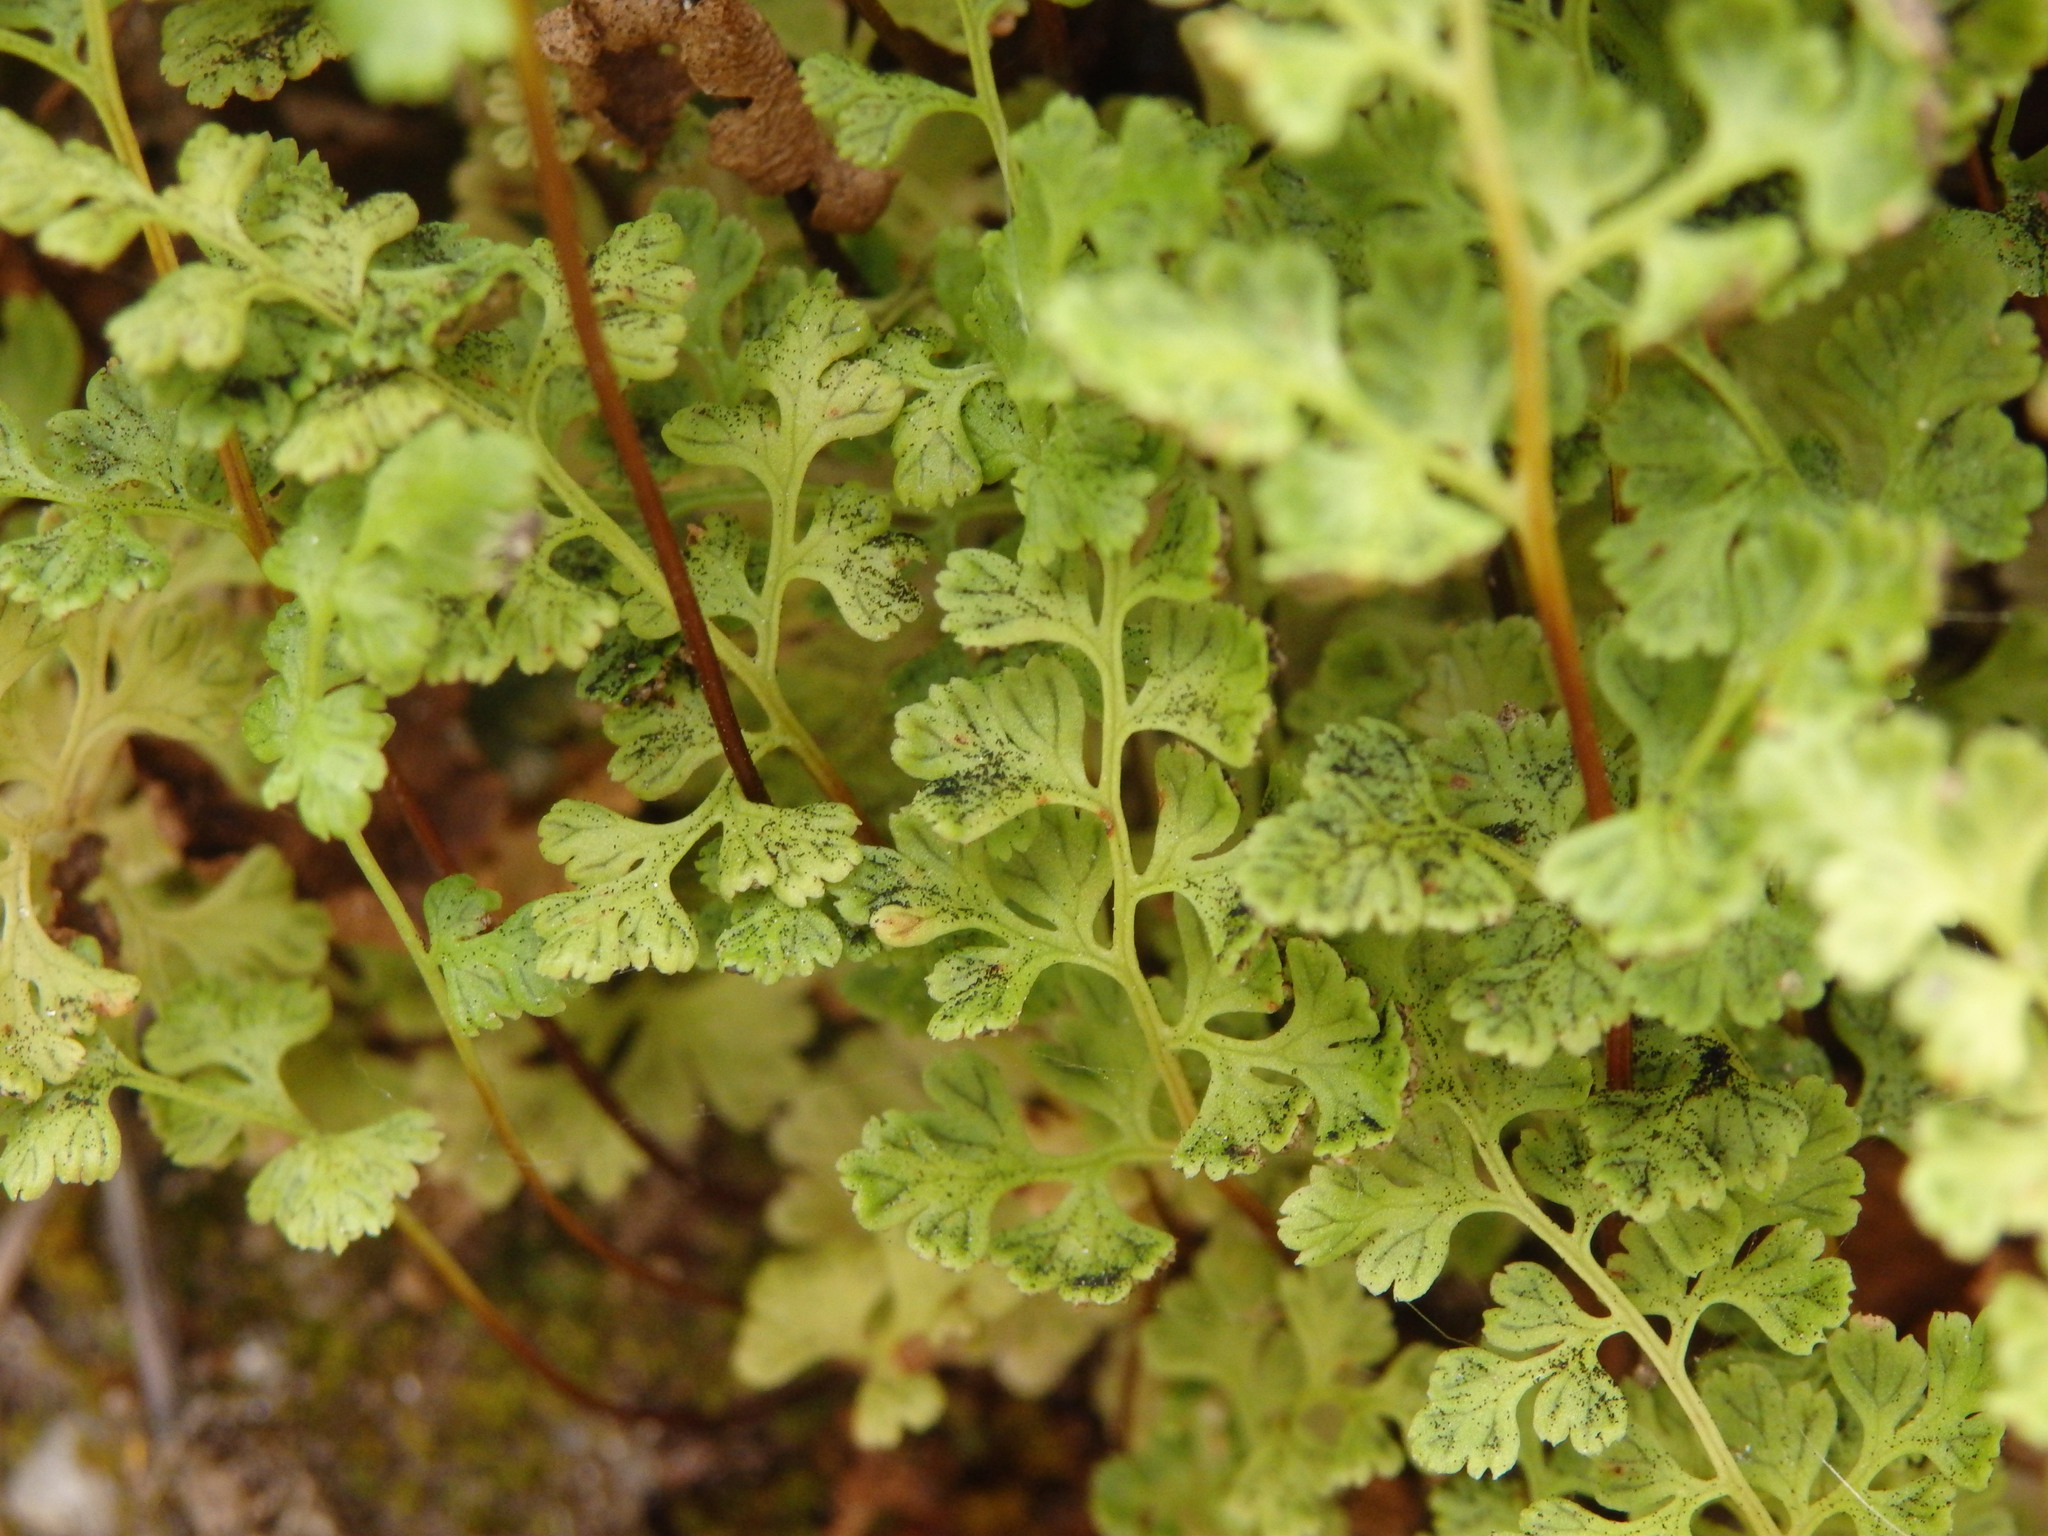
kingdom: Plantae
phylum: Tracheophyta
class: Polypodiopsida
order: Polypodiales
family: Pteridaceae
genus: Anogramma
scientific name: Anogramma leptophylla
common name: Jersey fern
